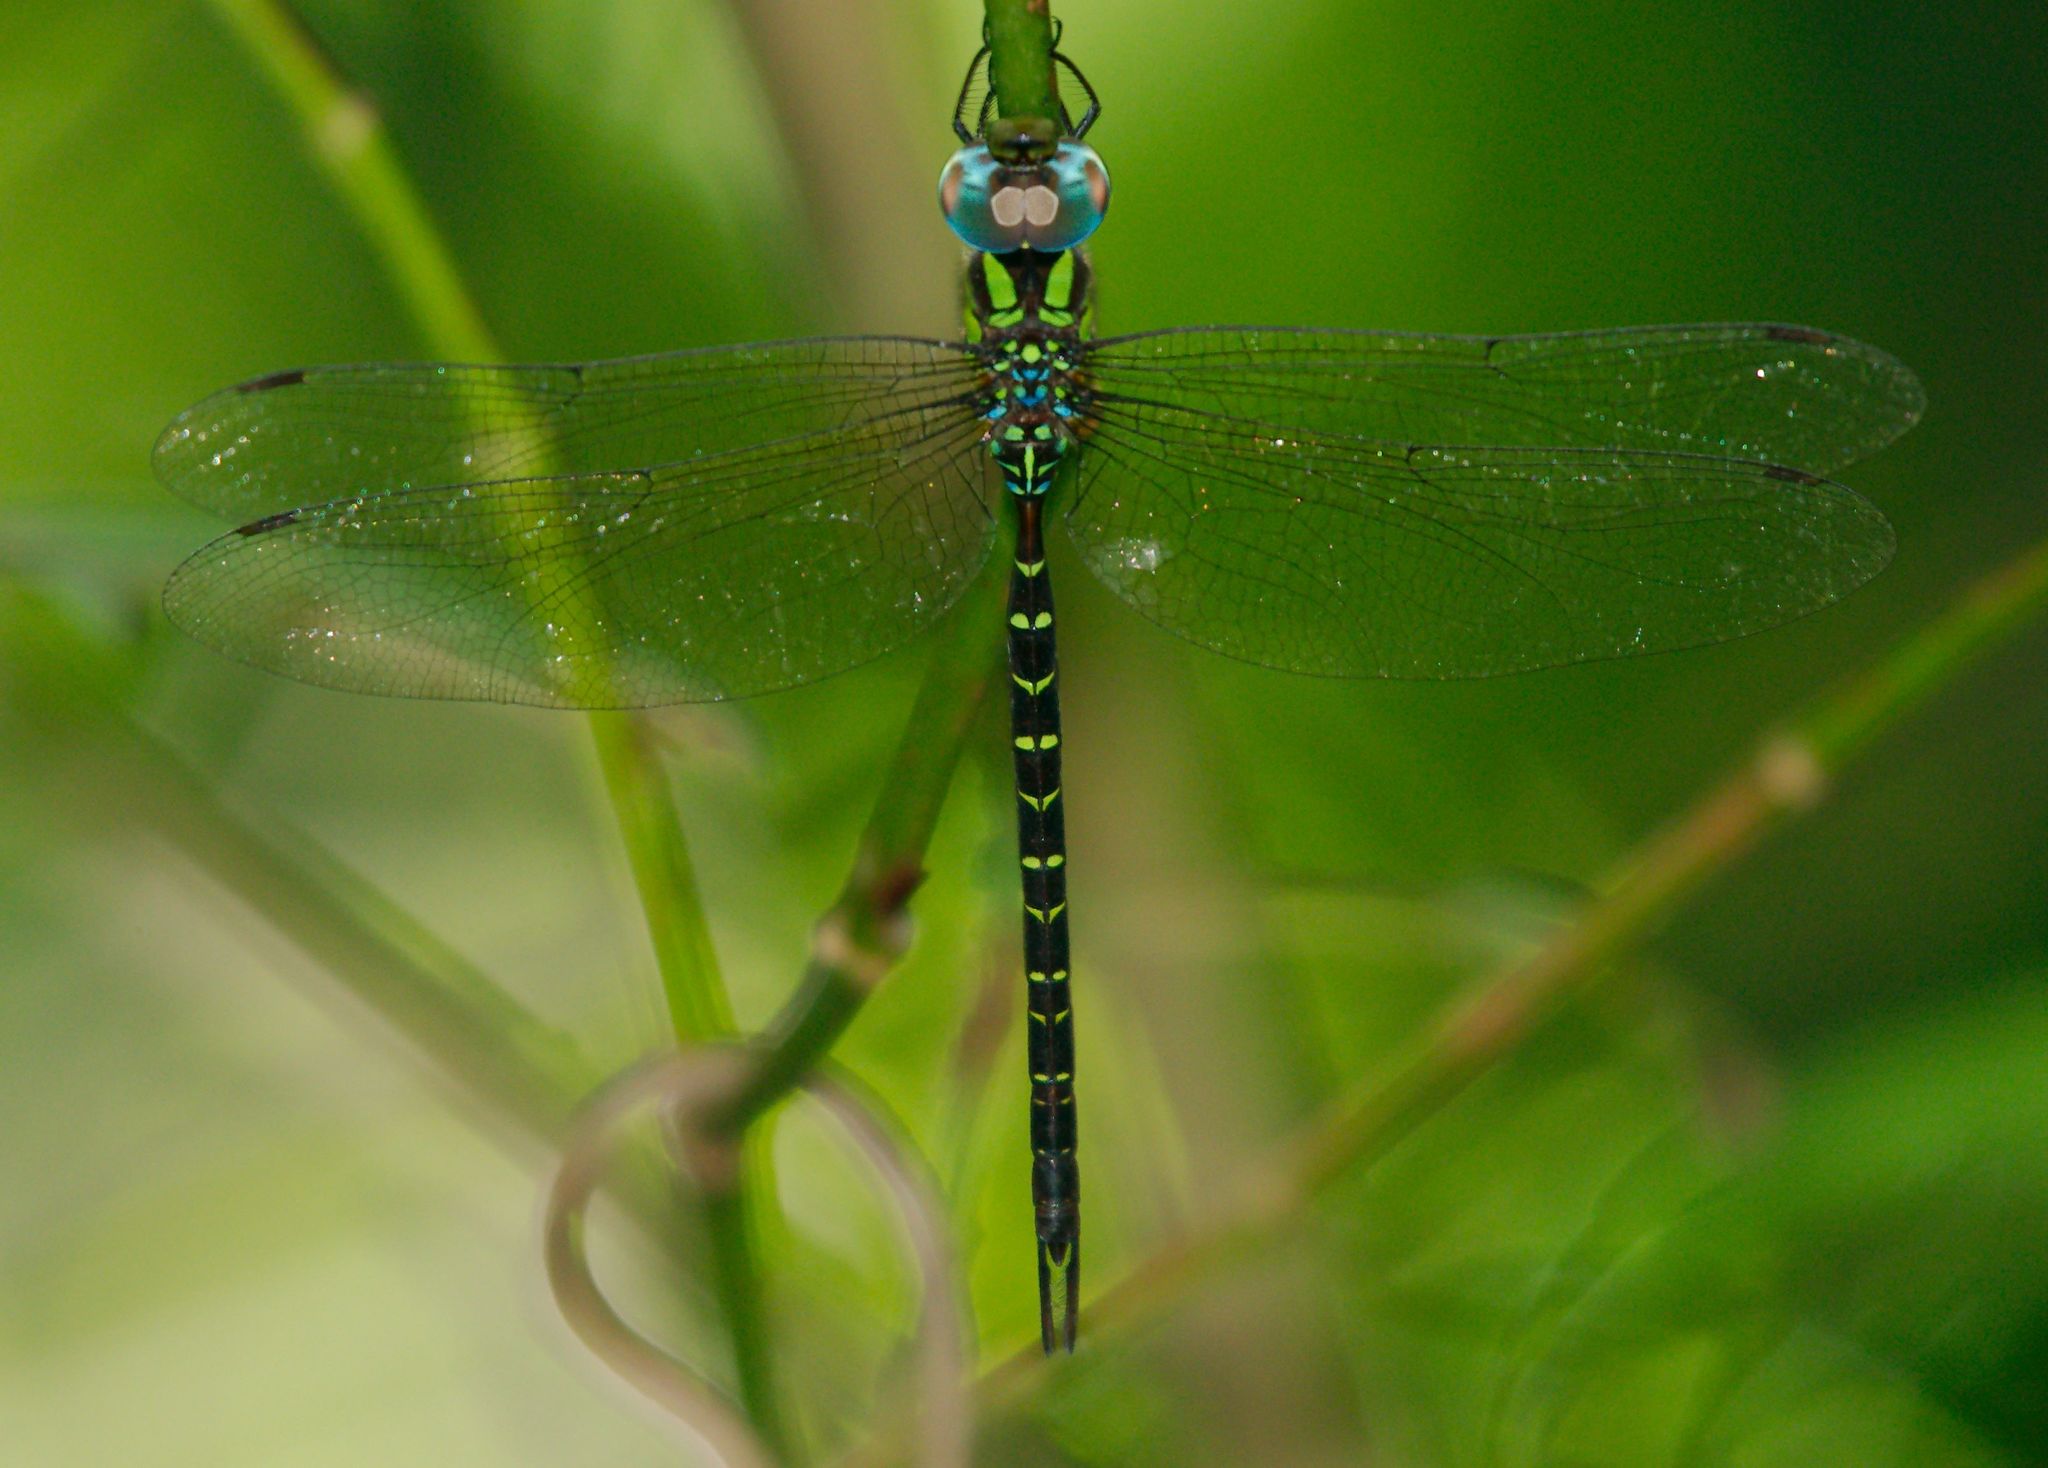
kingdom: Animalia
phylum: Arthropoda
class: Insecta
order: Odonata
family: Aeshnidae
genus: Triacanthagyna
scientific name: Triacanthagyna trifida
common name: Phantom darner
